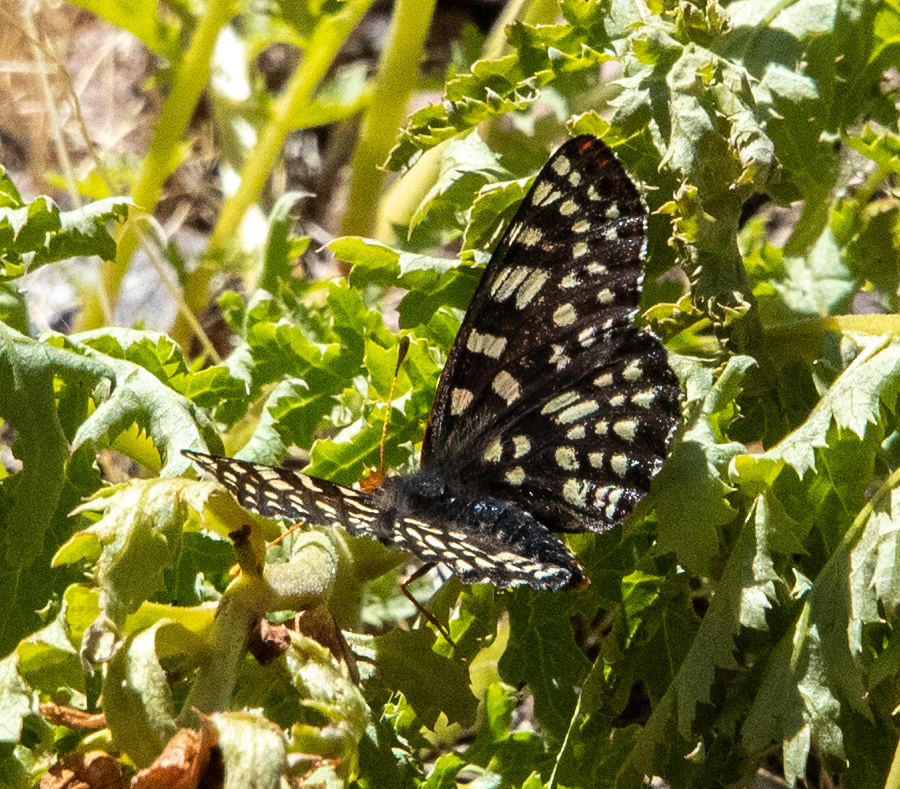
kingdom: Animalia
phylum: Arthropoda
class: Insecta
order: Lepidoptera
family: Nymphalidae
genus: Occidryas
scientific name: Occidryas chalcedona
